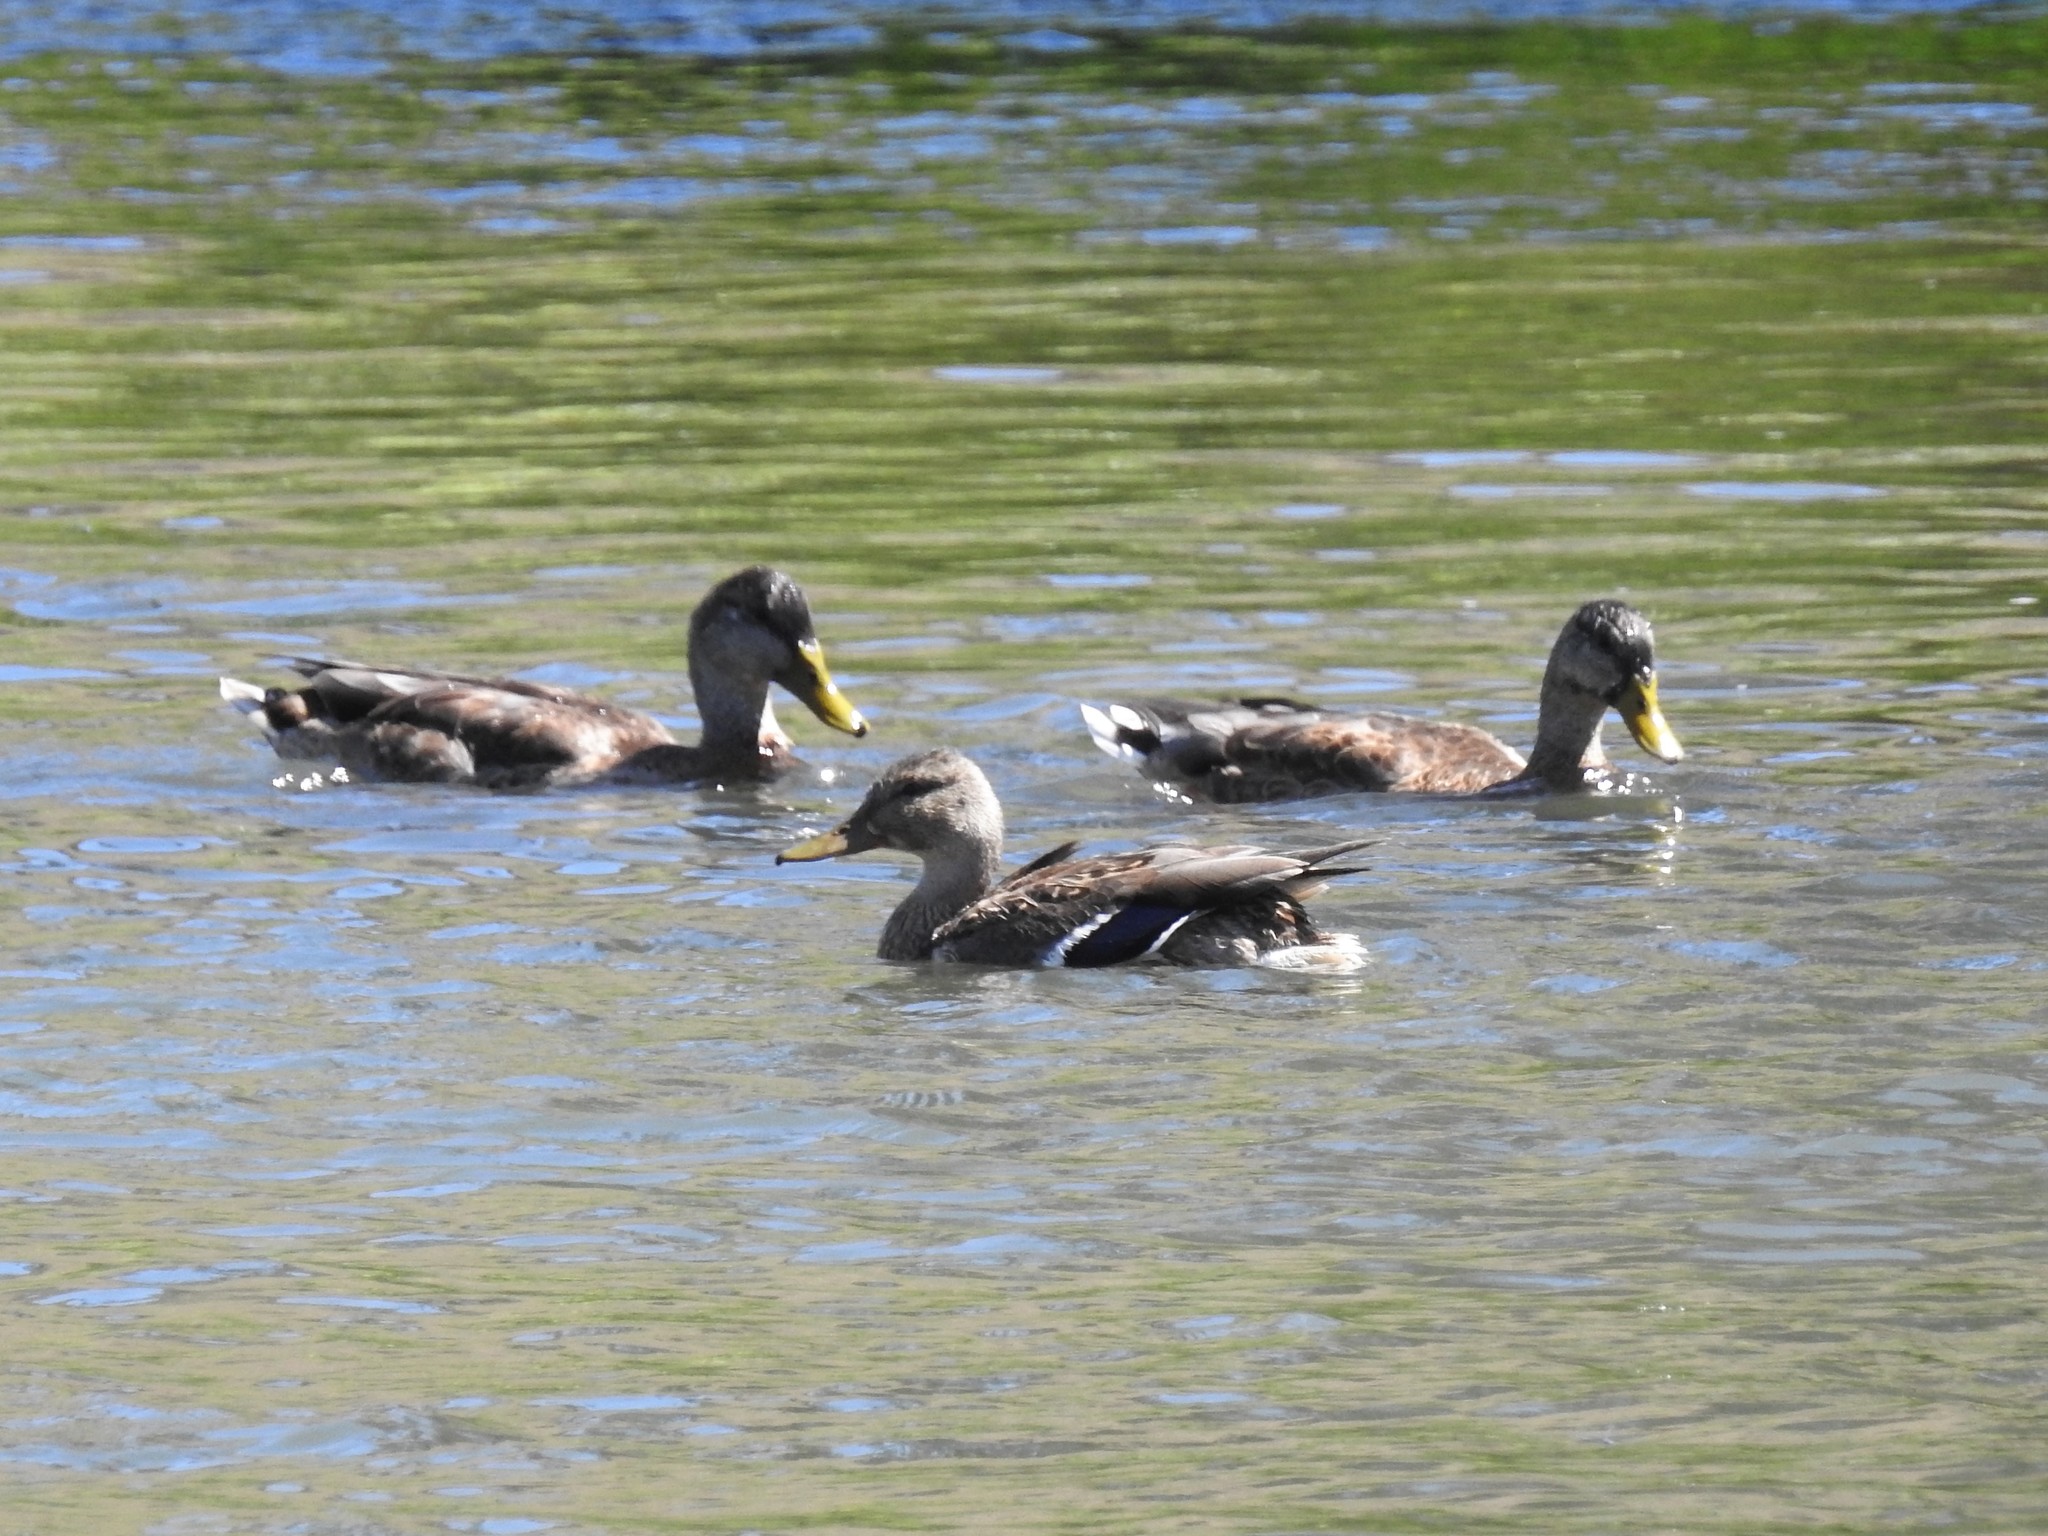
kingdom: Animalia
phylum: Chordata
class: Aves
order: Anseriformes
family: Anatidae
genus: Anas
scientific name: Anas platyrhynchos
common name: Mallard
